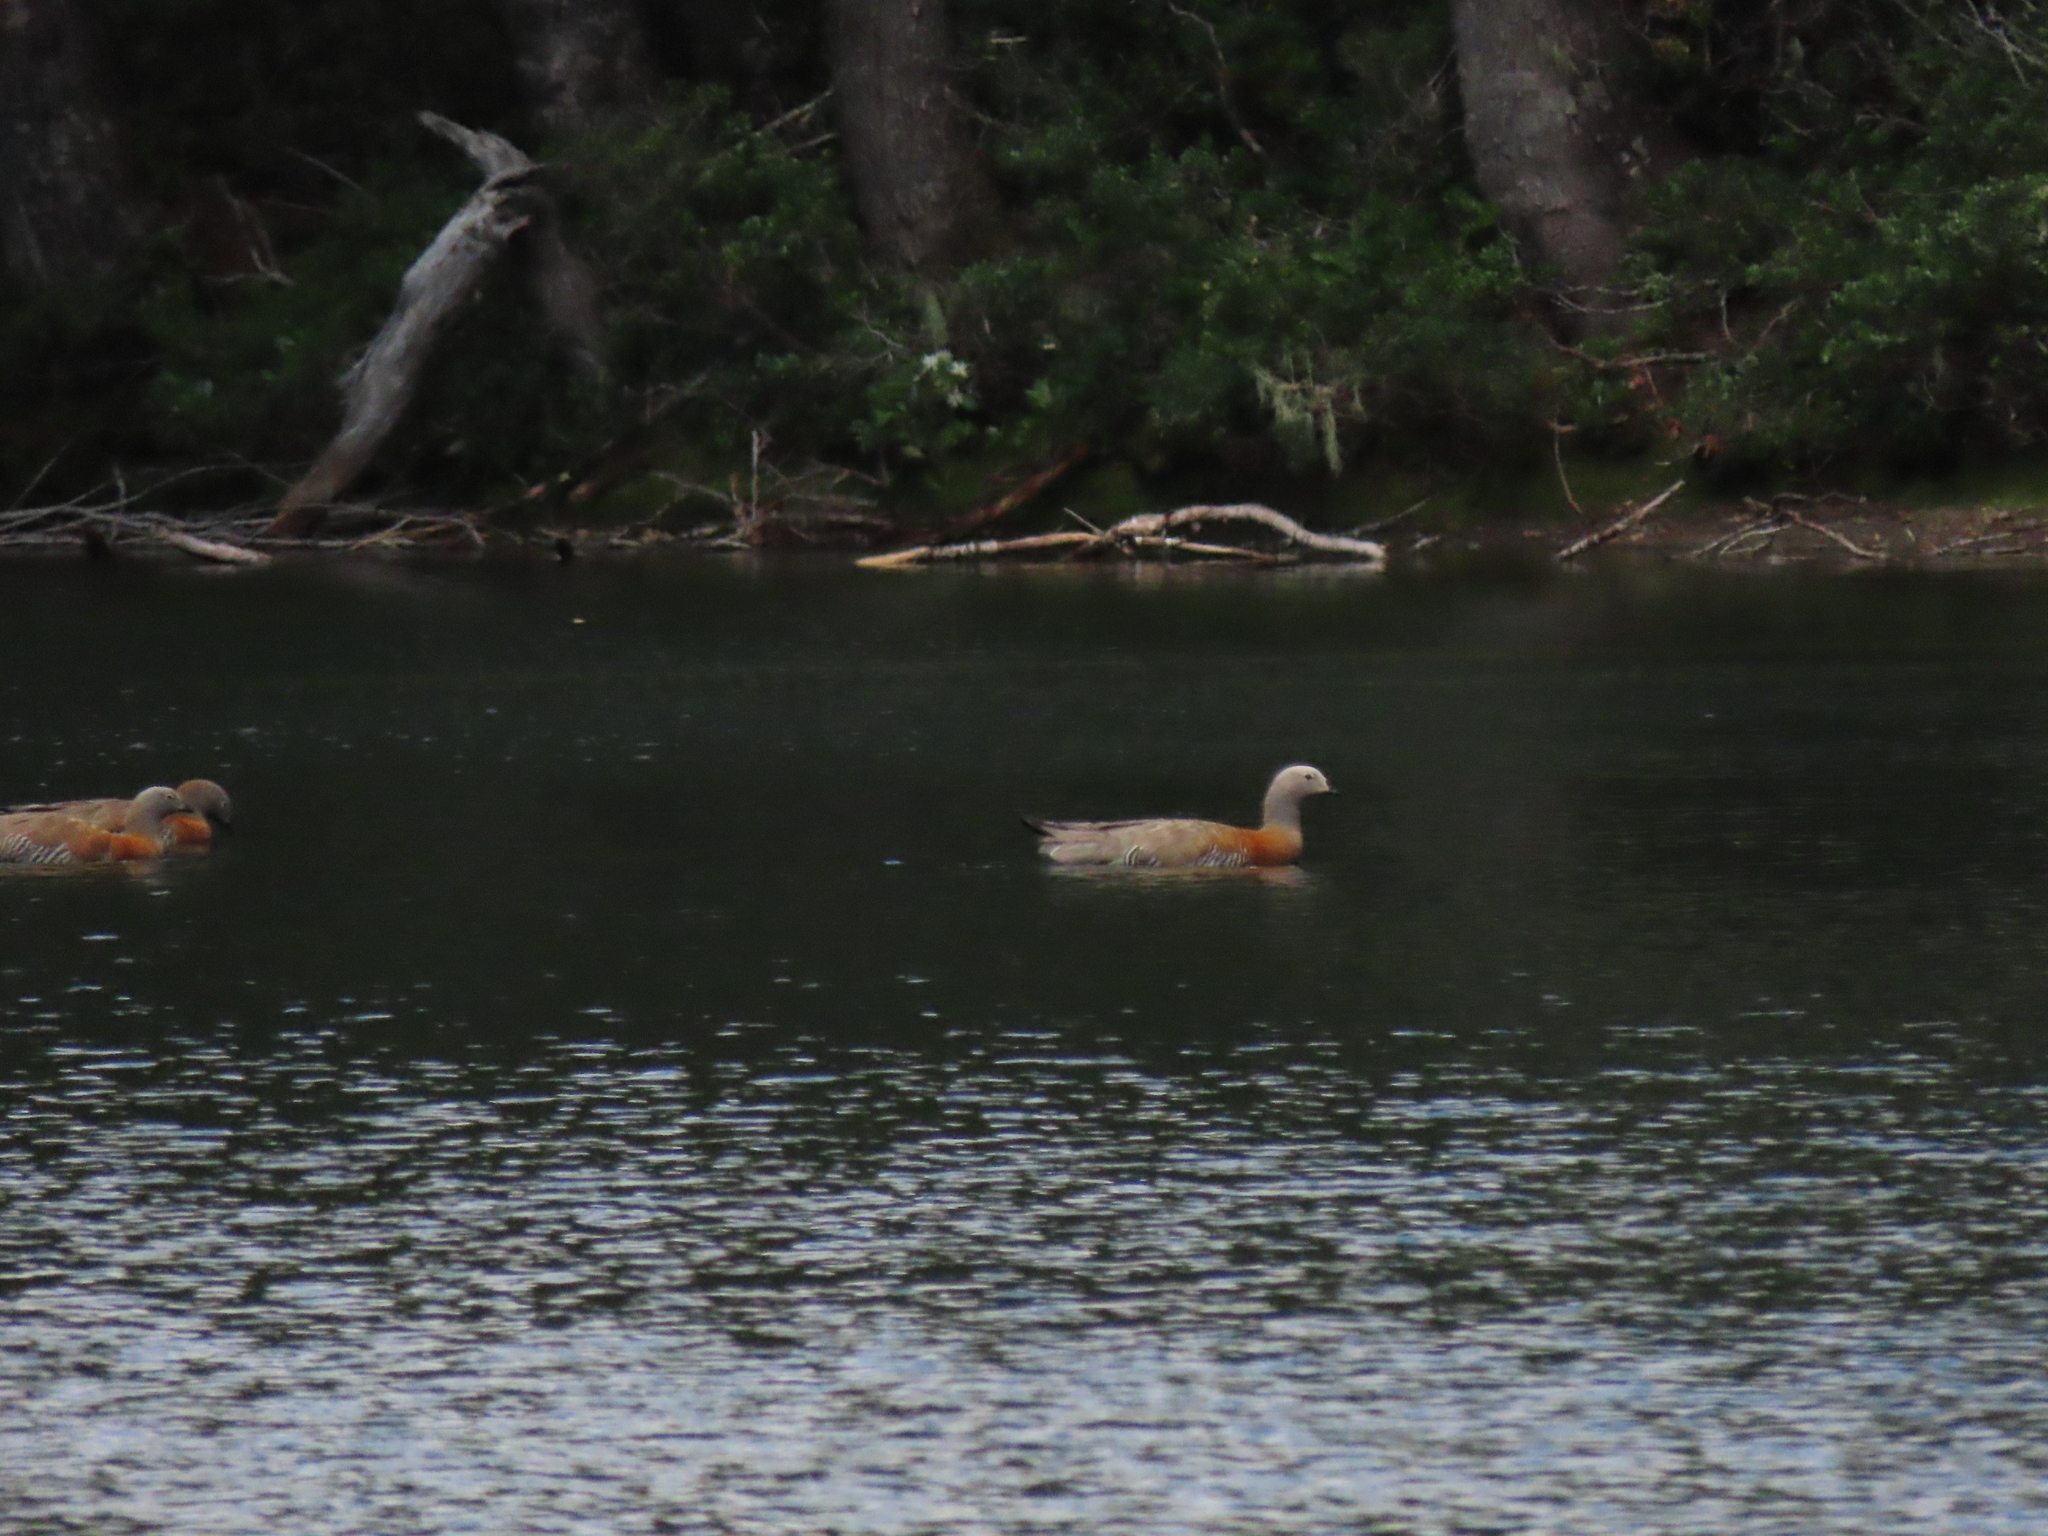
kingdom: Animalia
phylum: Chordata
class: Aves
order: Anseriformes
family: Anatidae
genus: Chloephaga
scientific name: Chloephaga poliocephala
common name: Ashy-headed goose
